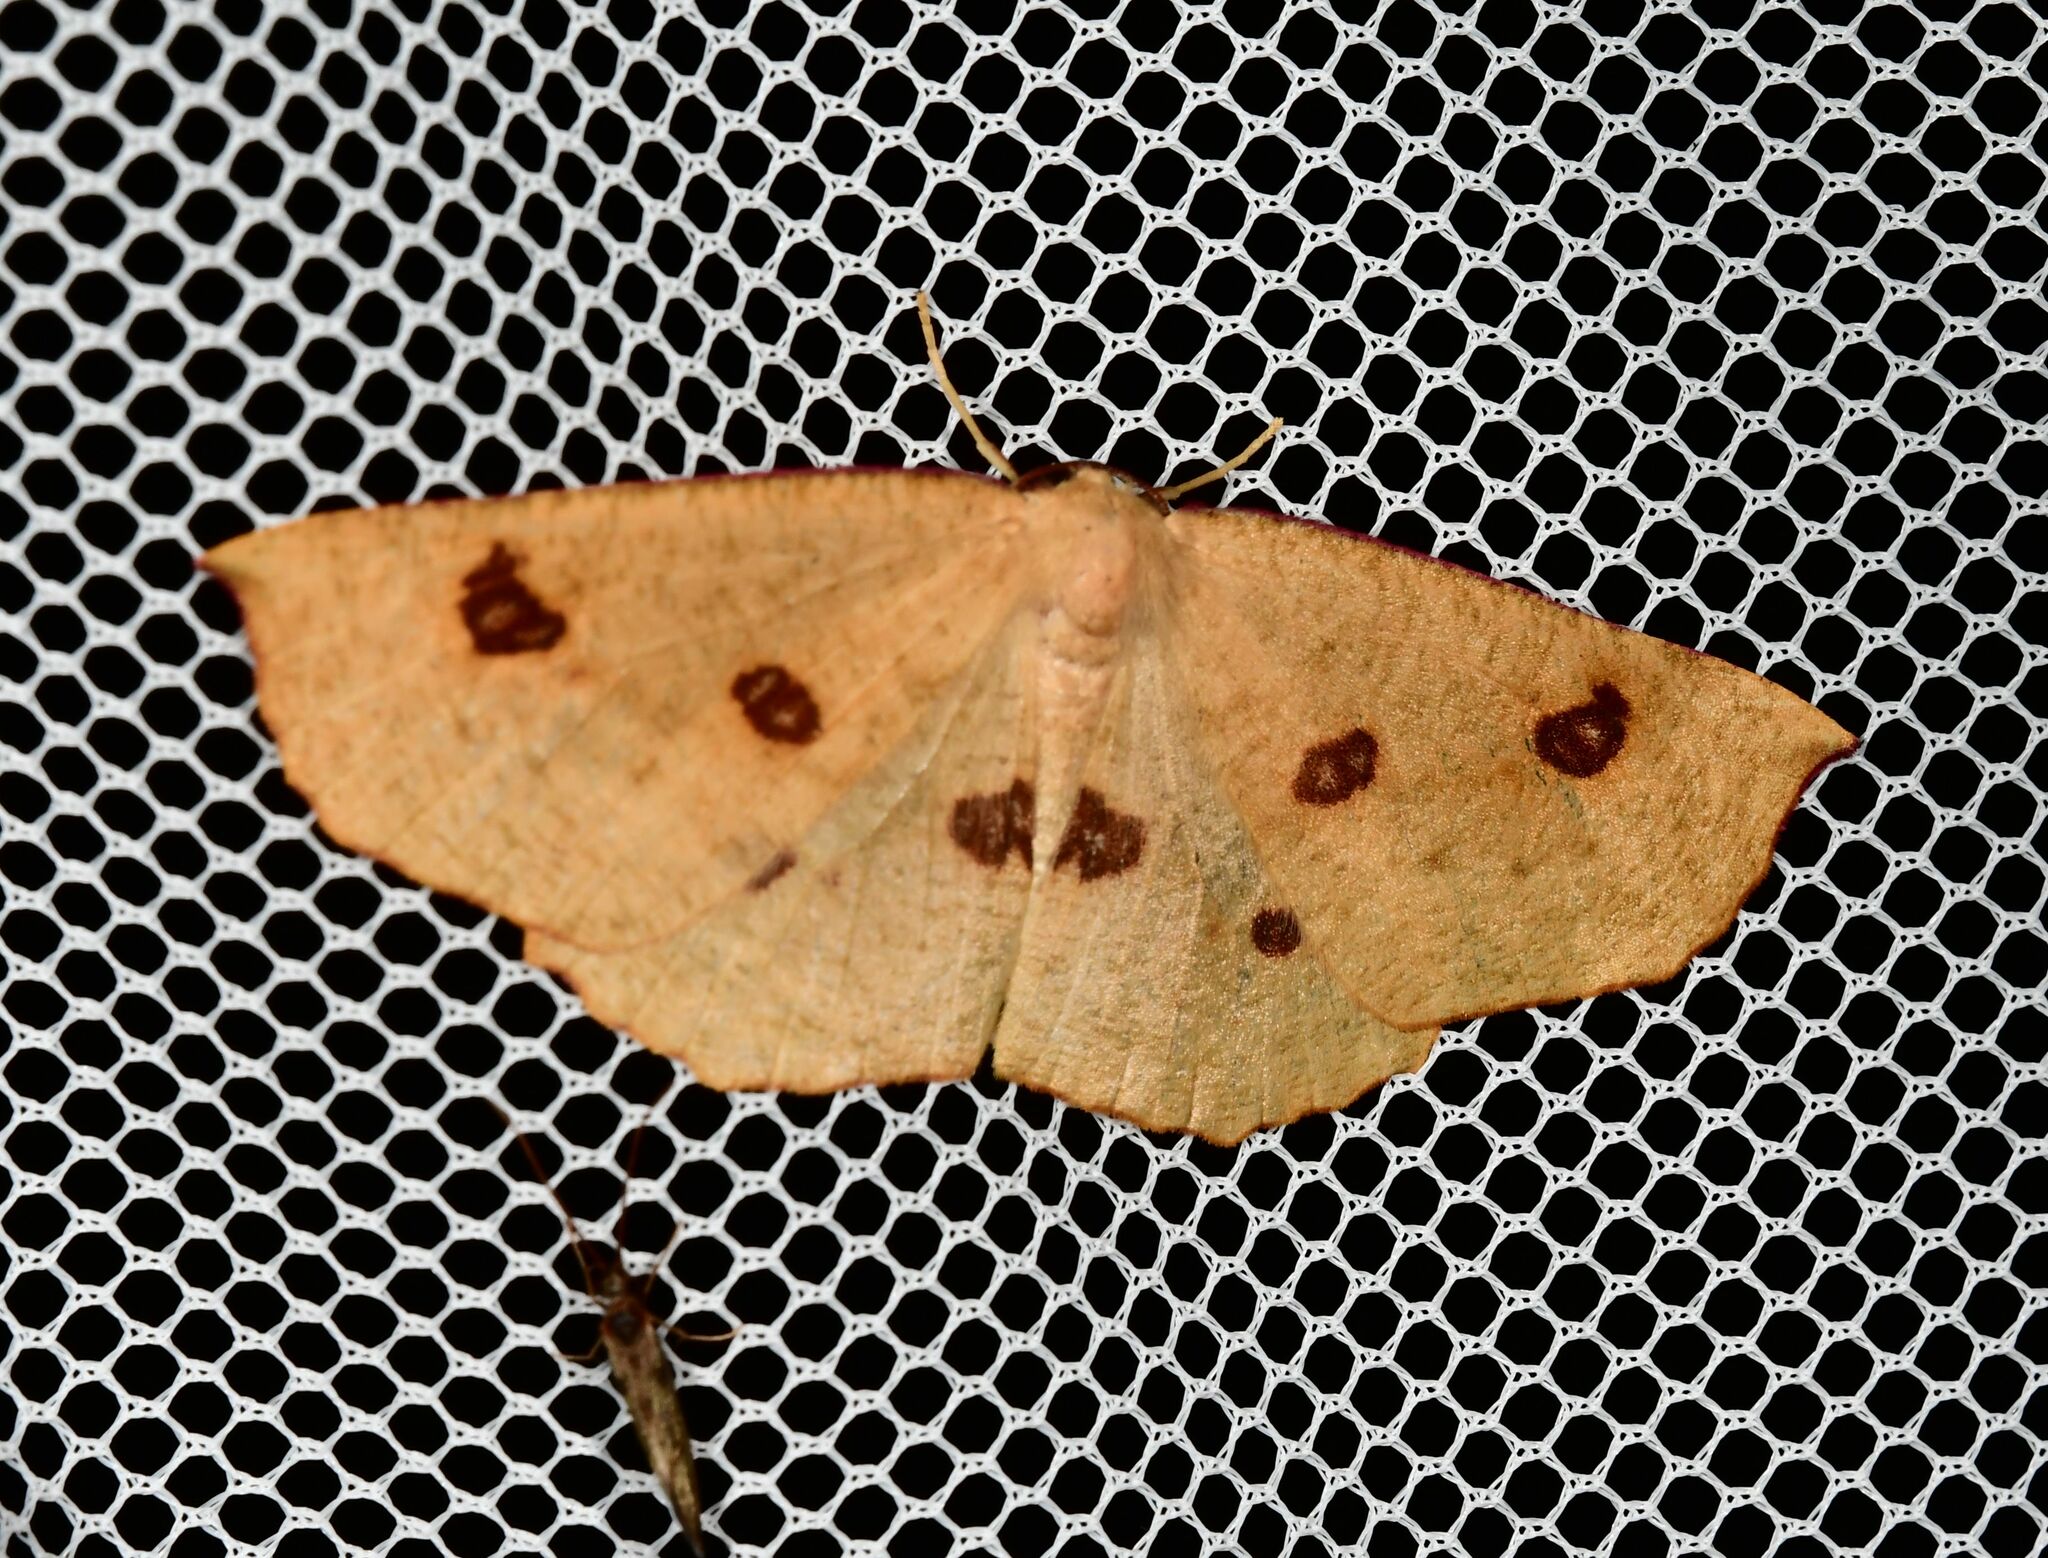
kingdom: Animalia
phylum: Arthropoda
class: Insecta
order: Lepidoptera
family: Geometridae
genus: Xyridacma
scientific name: Xyridacma alectoraria
